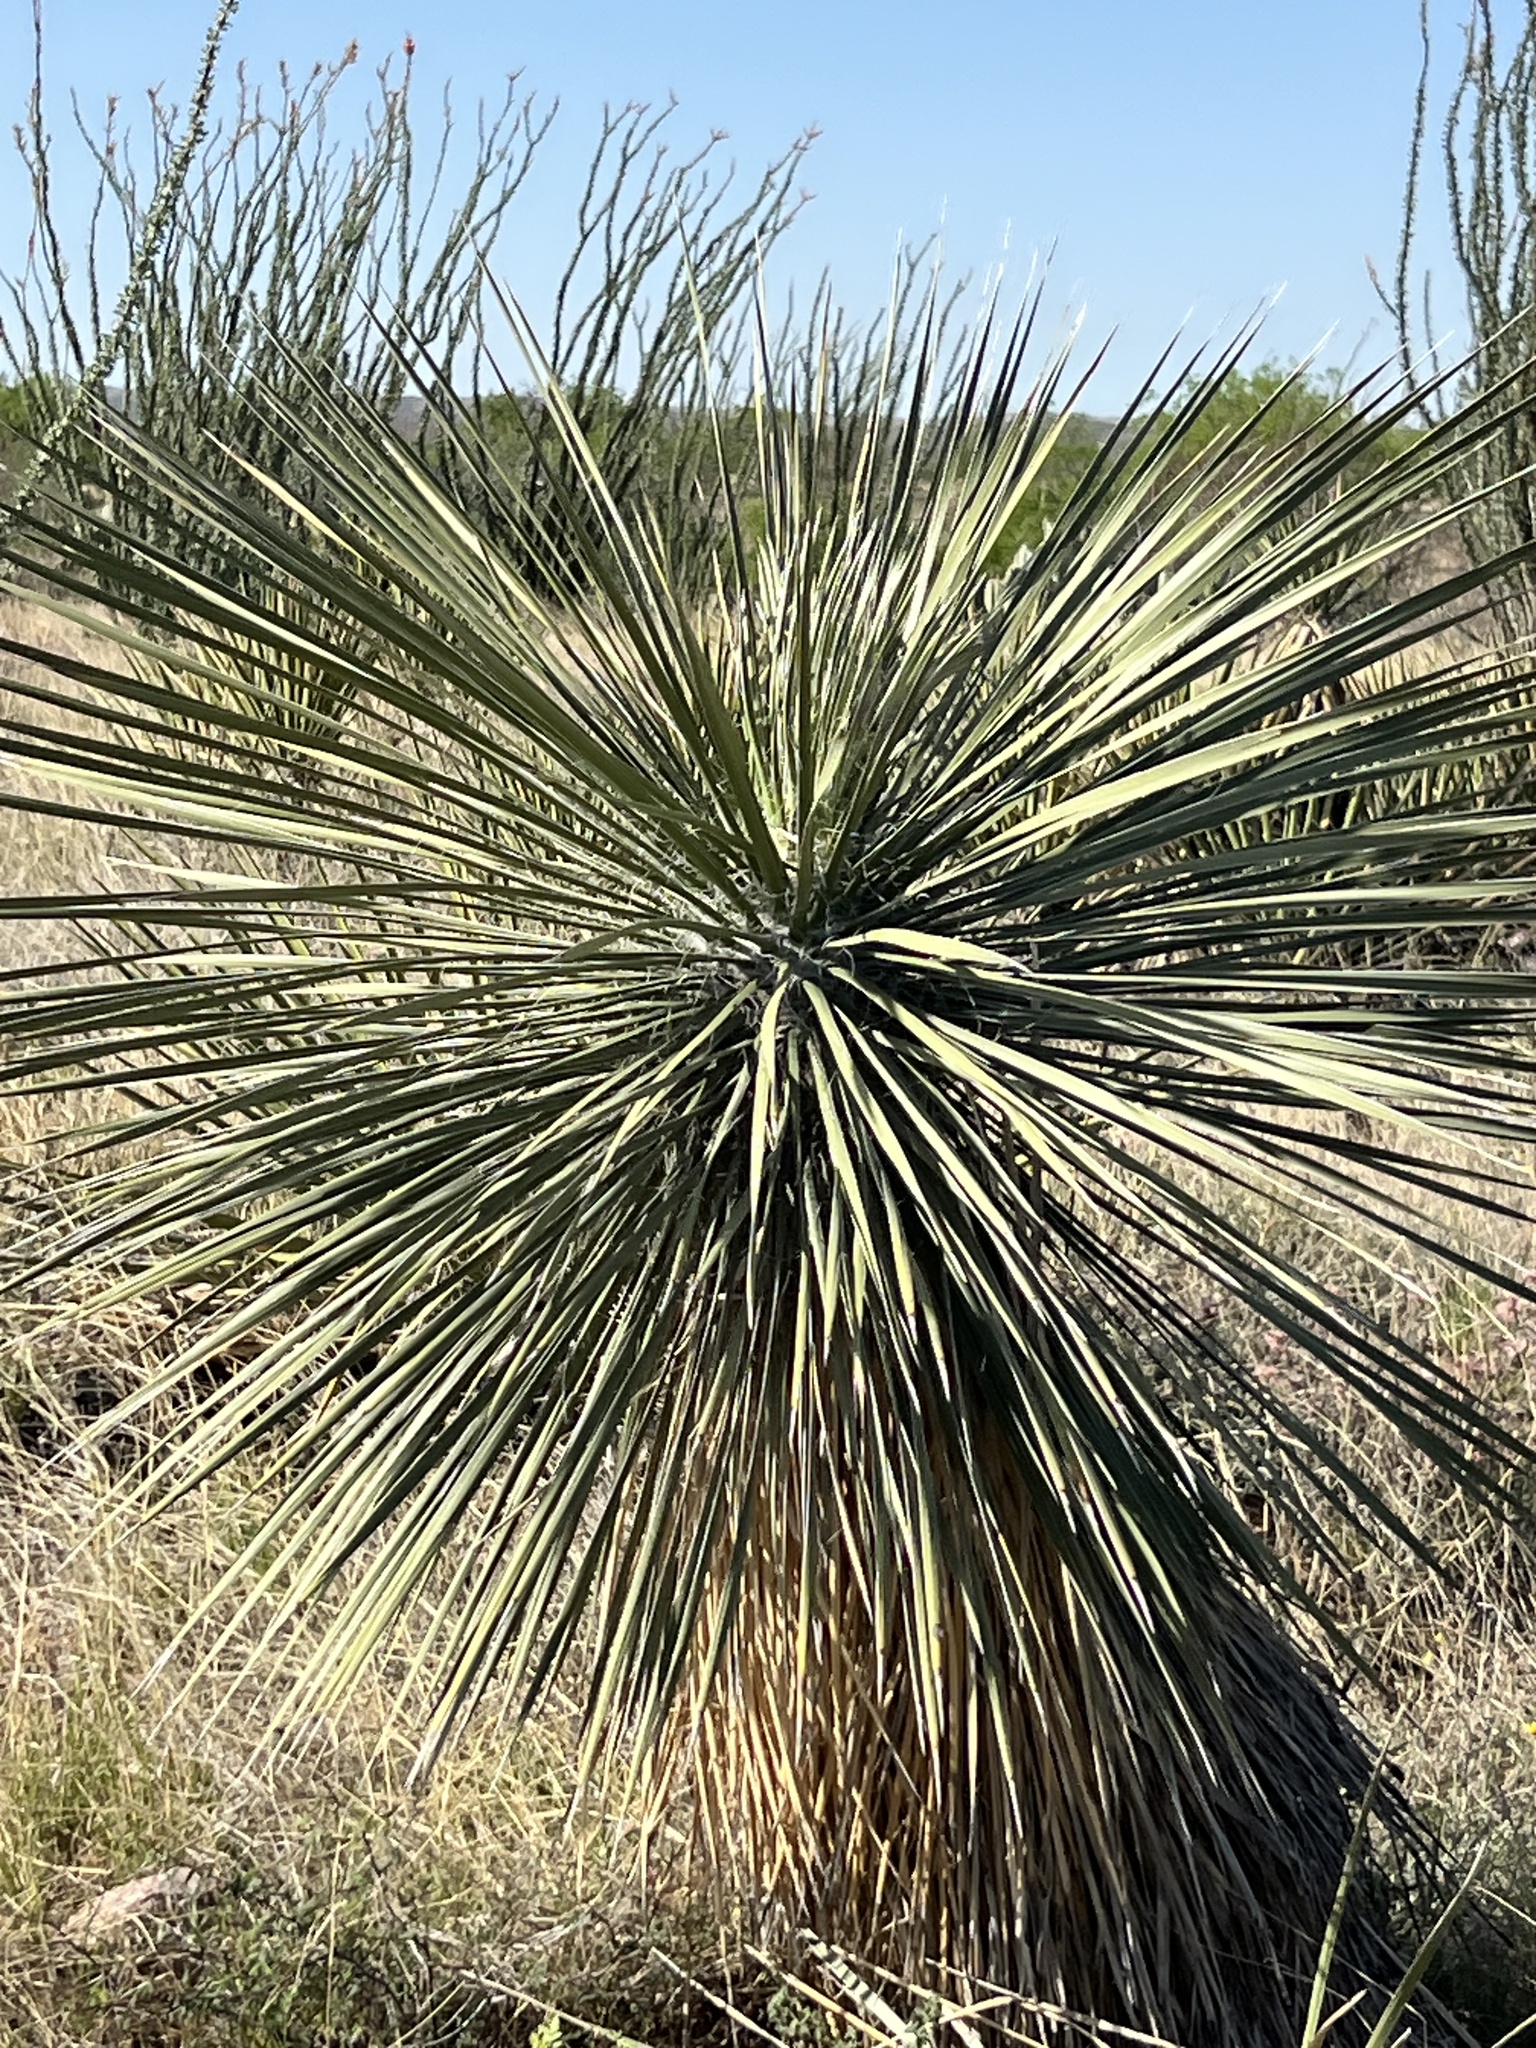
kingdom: Plantae
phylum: Tracheophyta
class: Liliopsida
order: Asparagales
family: Asparagaceae
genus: Yucca
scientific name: Yucca elata
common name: Palmella
